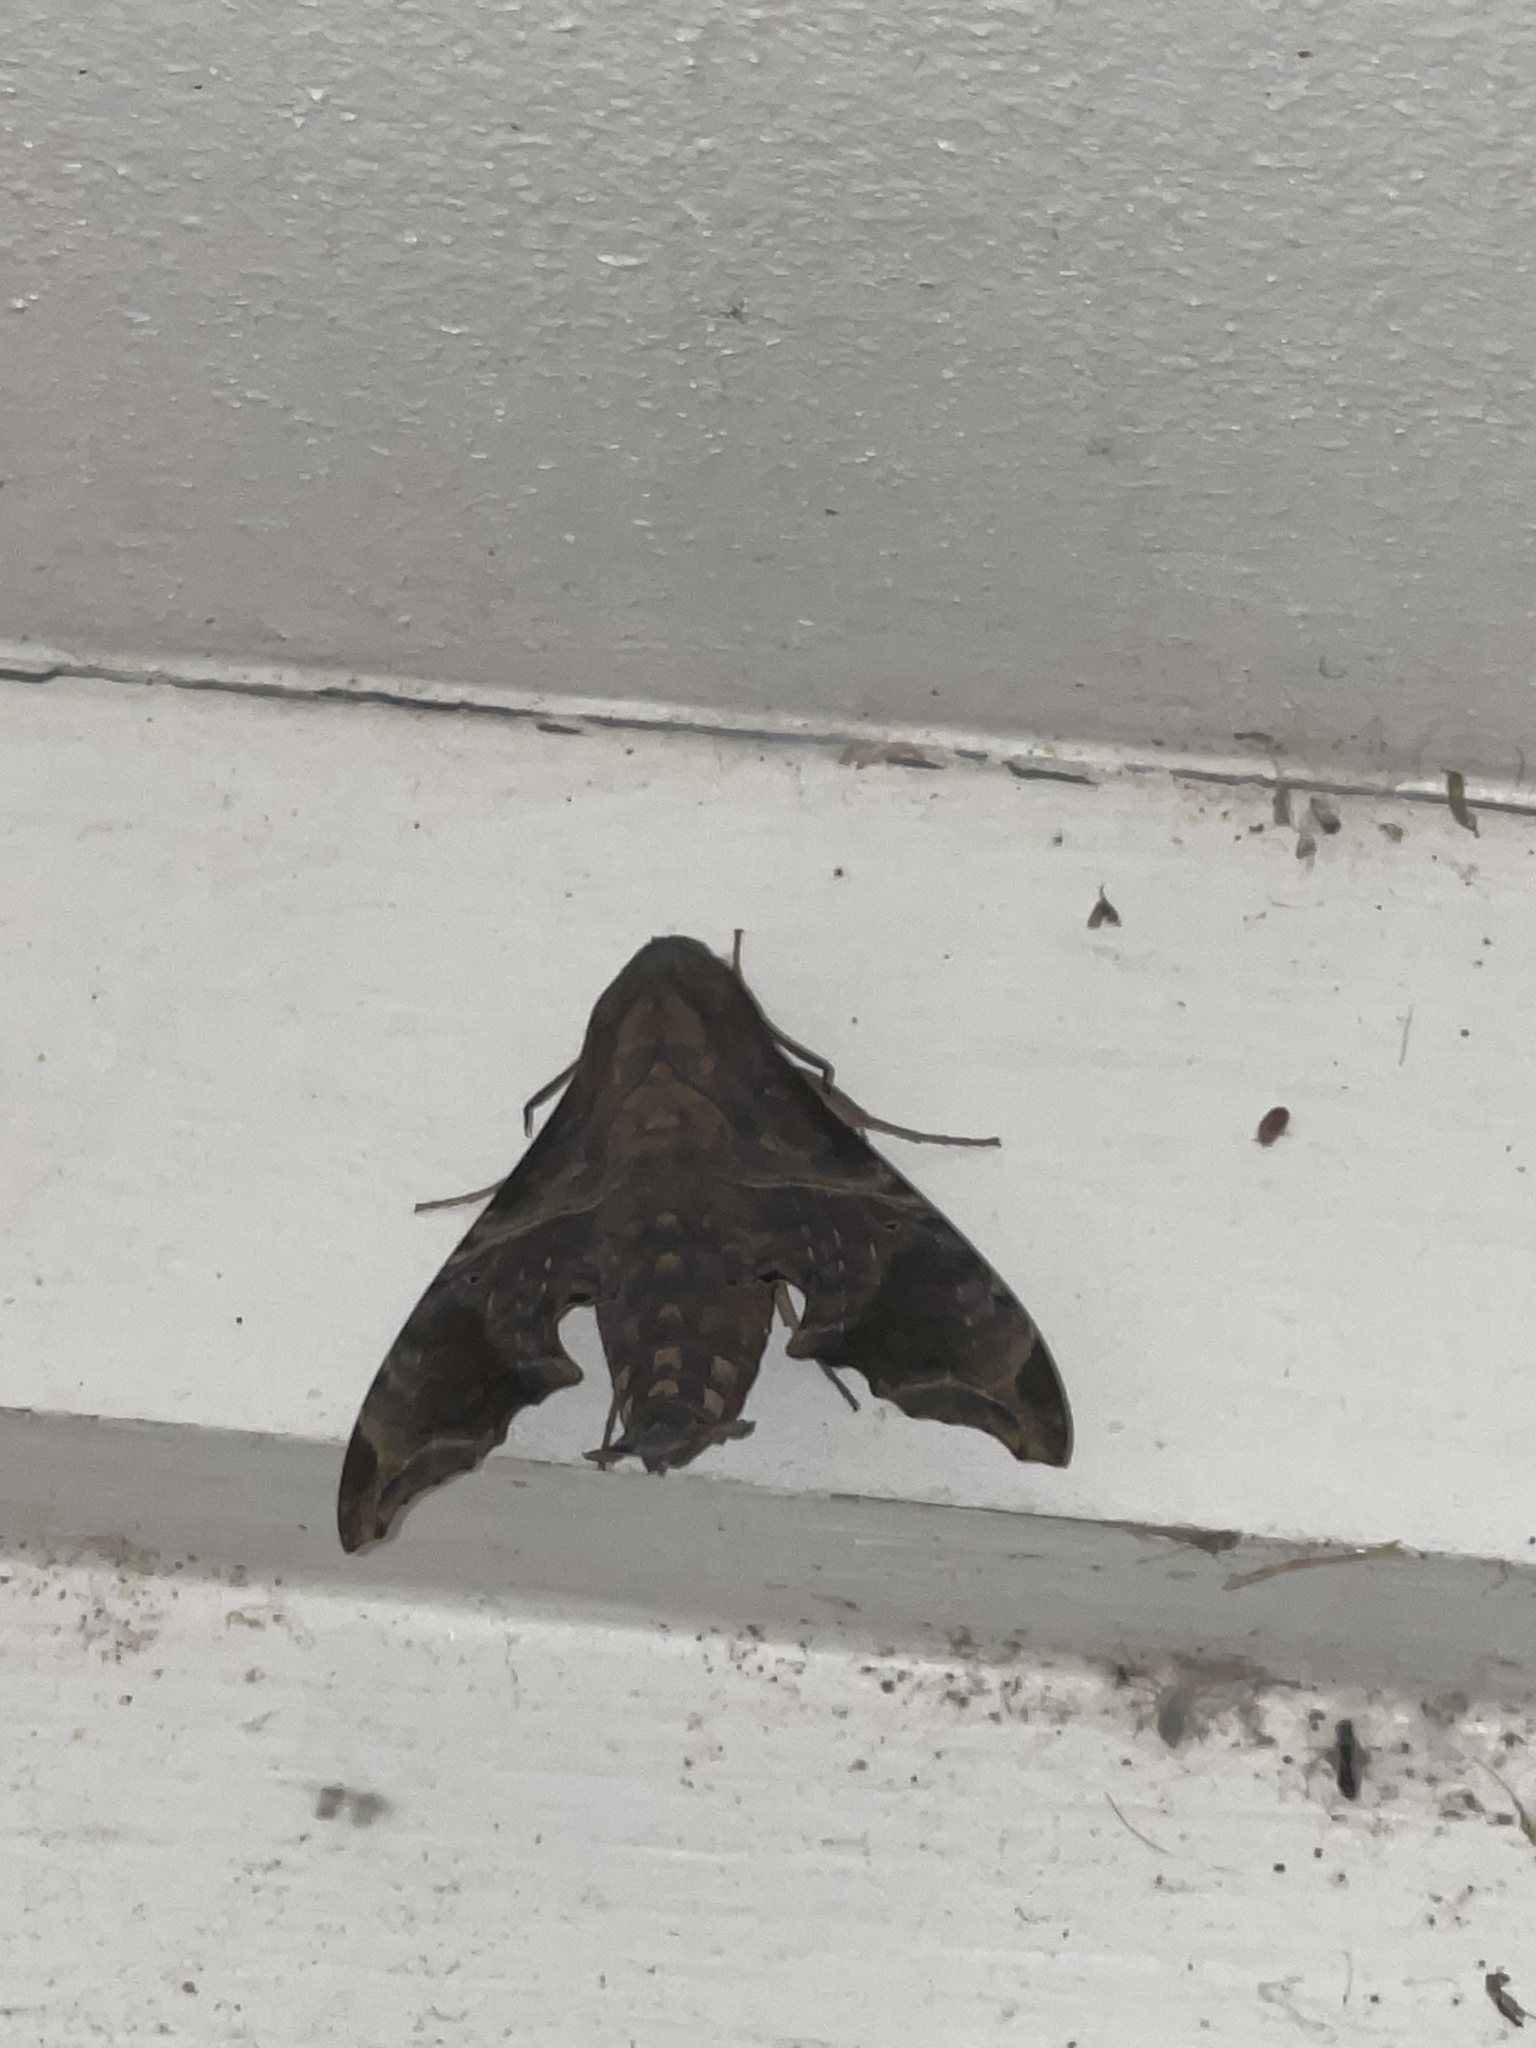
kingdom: Animalia
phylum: Arthropoda
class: Insecta
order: Lepidoptera
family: Sphingidae
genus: Enyo
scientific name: Enyo lugubris
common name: Mournful sphinx
